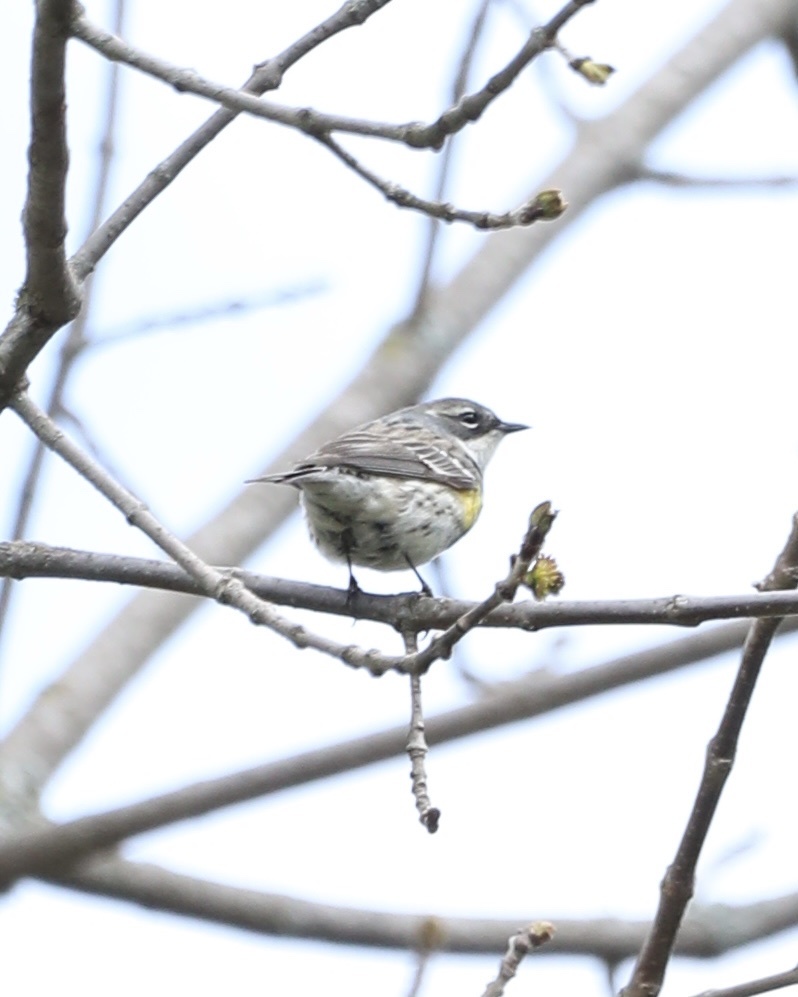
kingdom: Animalia
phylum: Chordata
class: Aves
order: Passeriformes
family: Parulidae
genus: Setophaga
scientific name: Setophaga coronata
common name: Myrtle warbler
